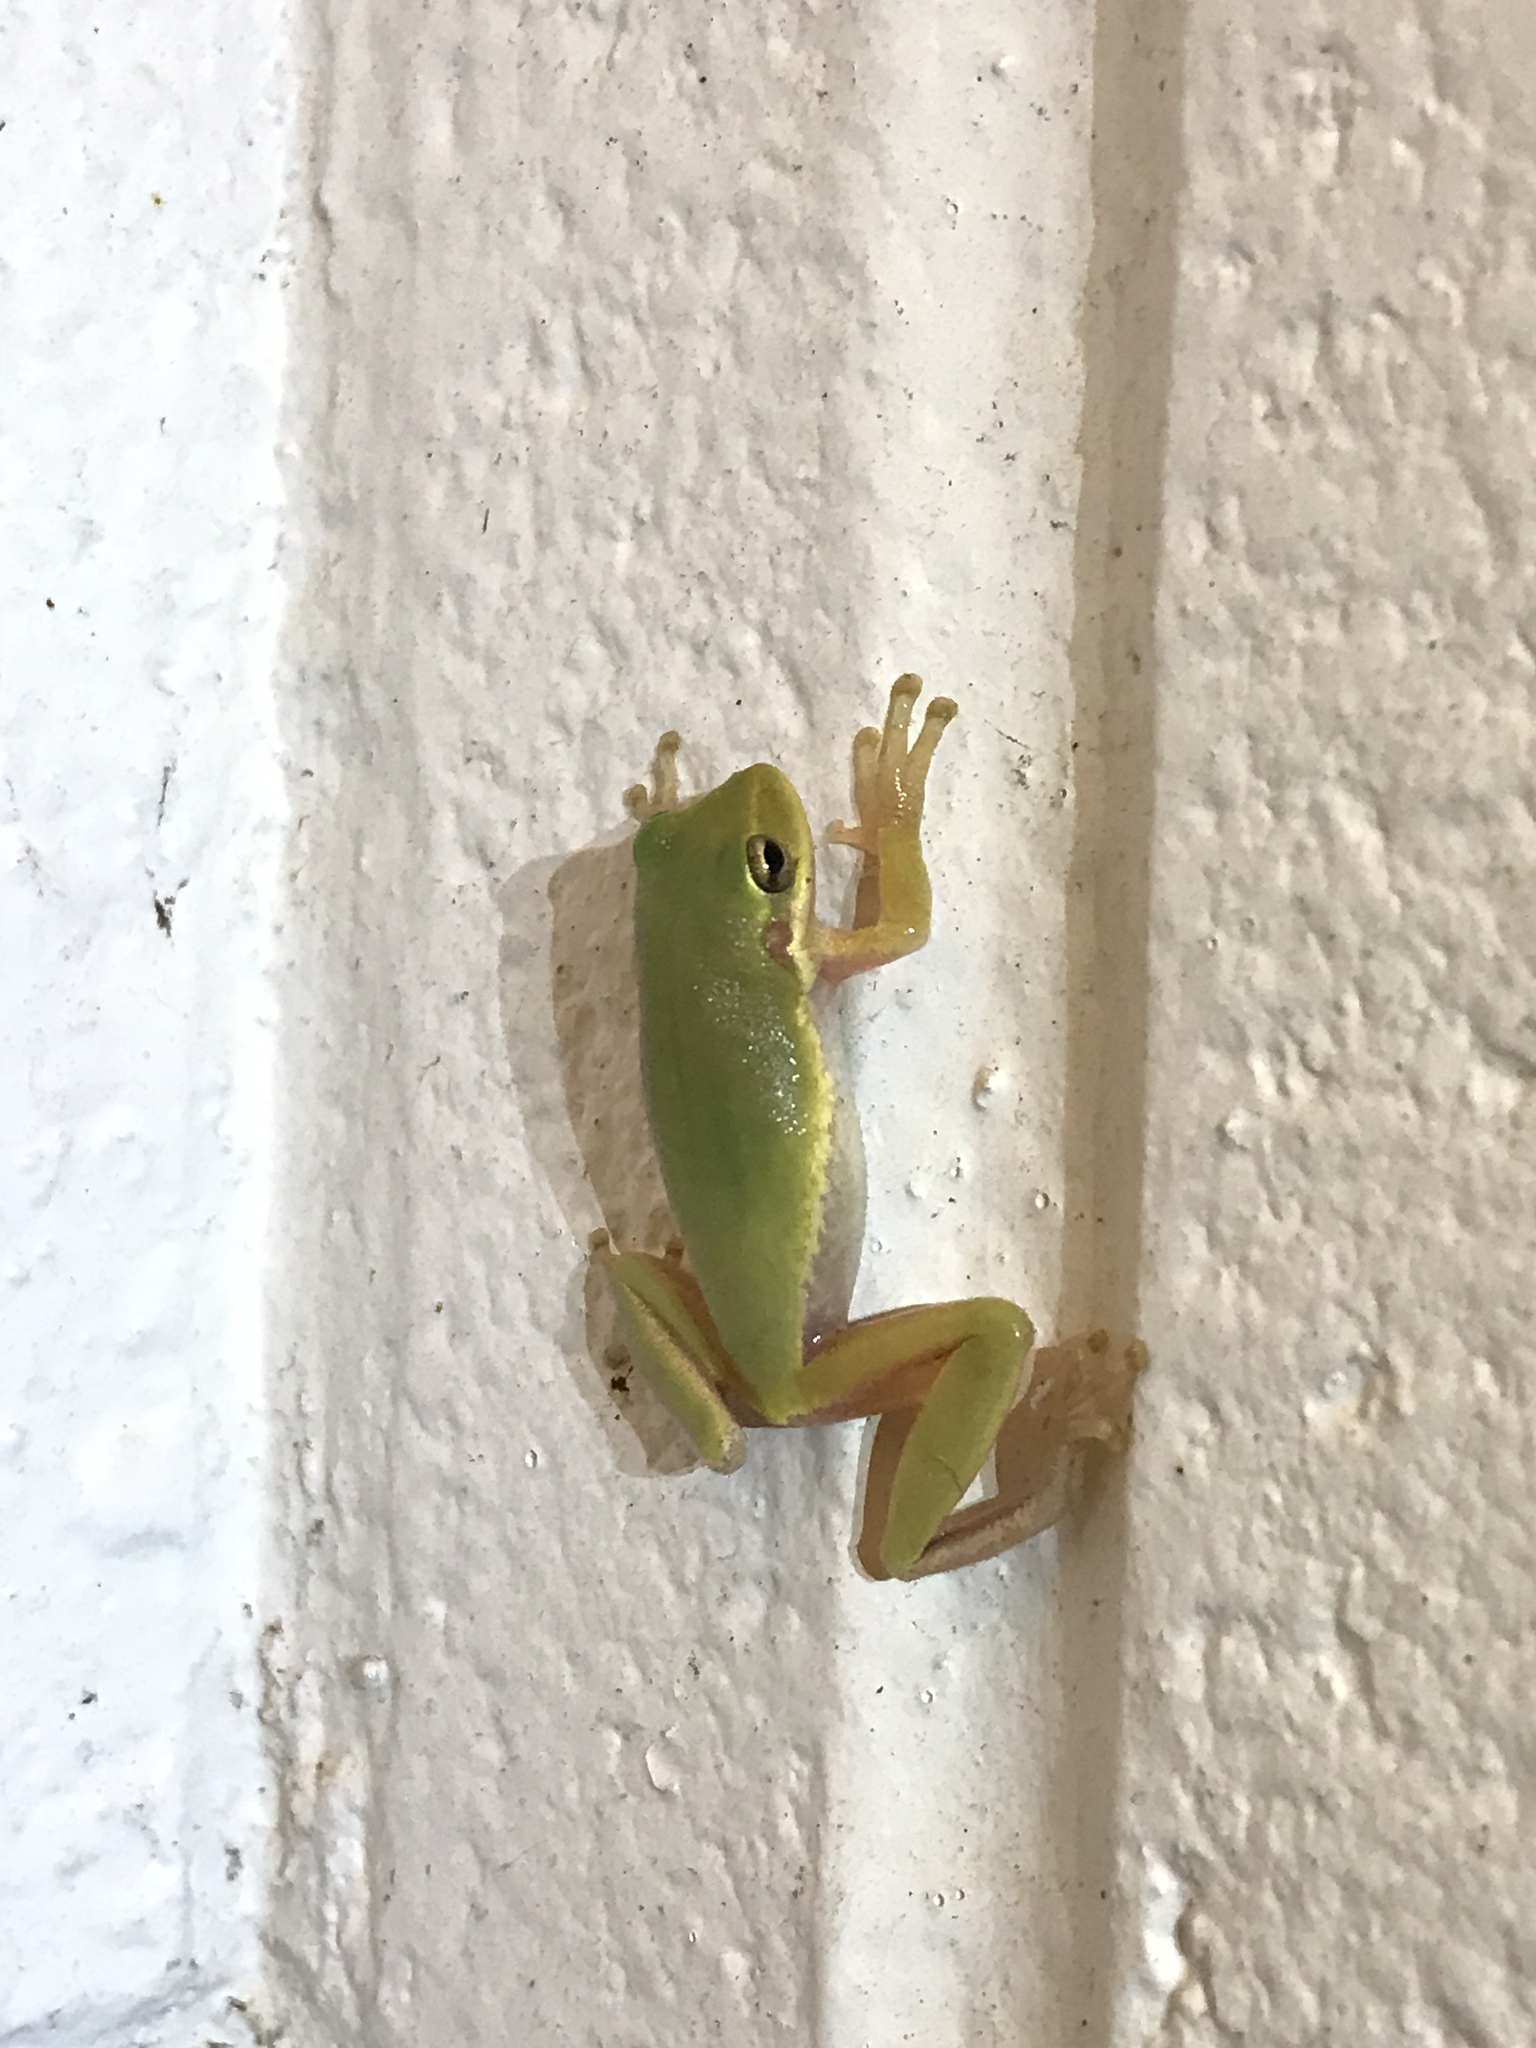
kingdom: Animalia
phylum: Chordata
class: Amphibia
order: Anura
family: Hylidae
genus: Dryophytes
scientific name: Dryophytes squirellus
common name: Squirrel treefrog
